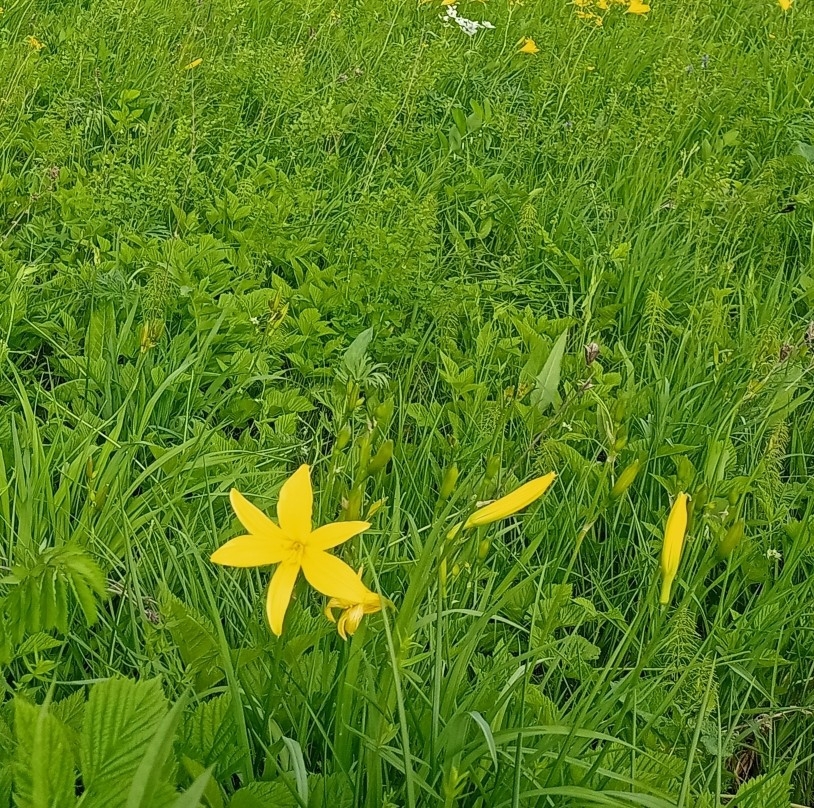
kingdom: Plantae
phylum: Tracheophyta
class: Liliopsida
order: Asparagales
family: Asphodelaceae
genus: Hemerocallis
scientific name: Hemerocallis minor
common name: Small daylily
